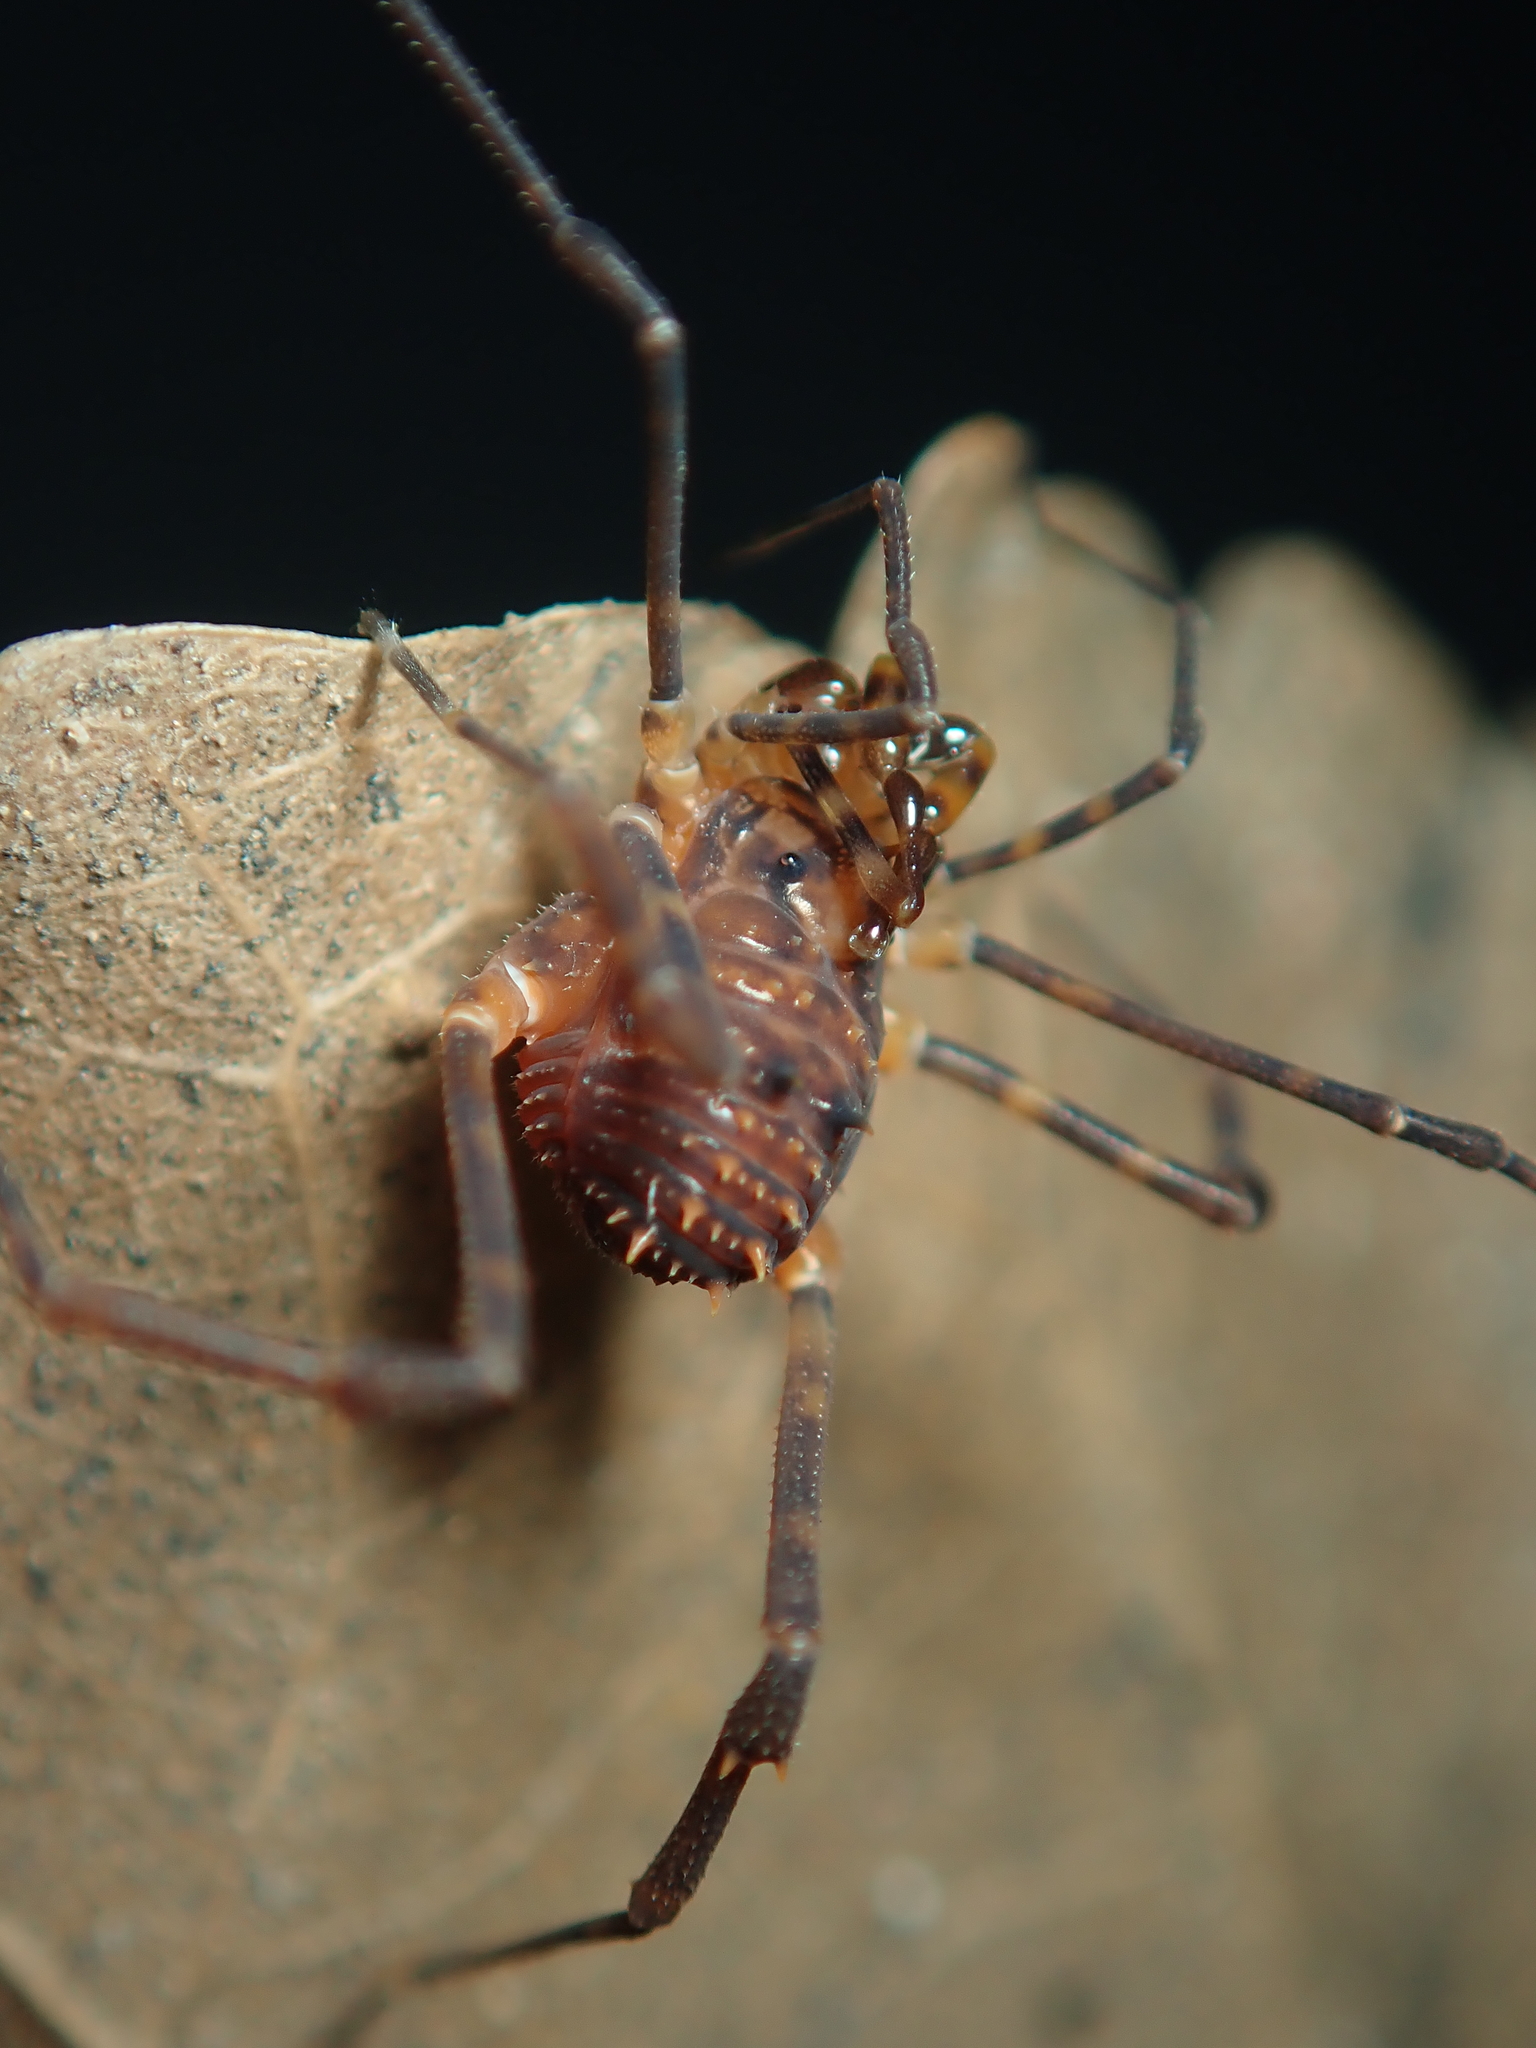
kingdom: Animalia
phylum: Arthropoda
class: Arachnida
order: Opiliones
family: Stygnidae
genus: Stygnus
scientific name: Stygnus luteus
